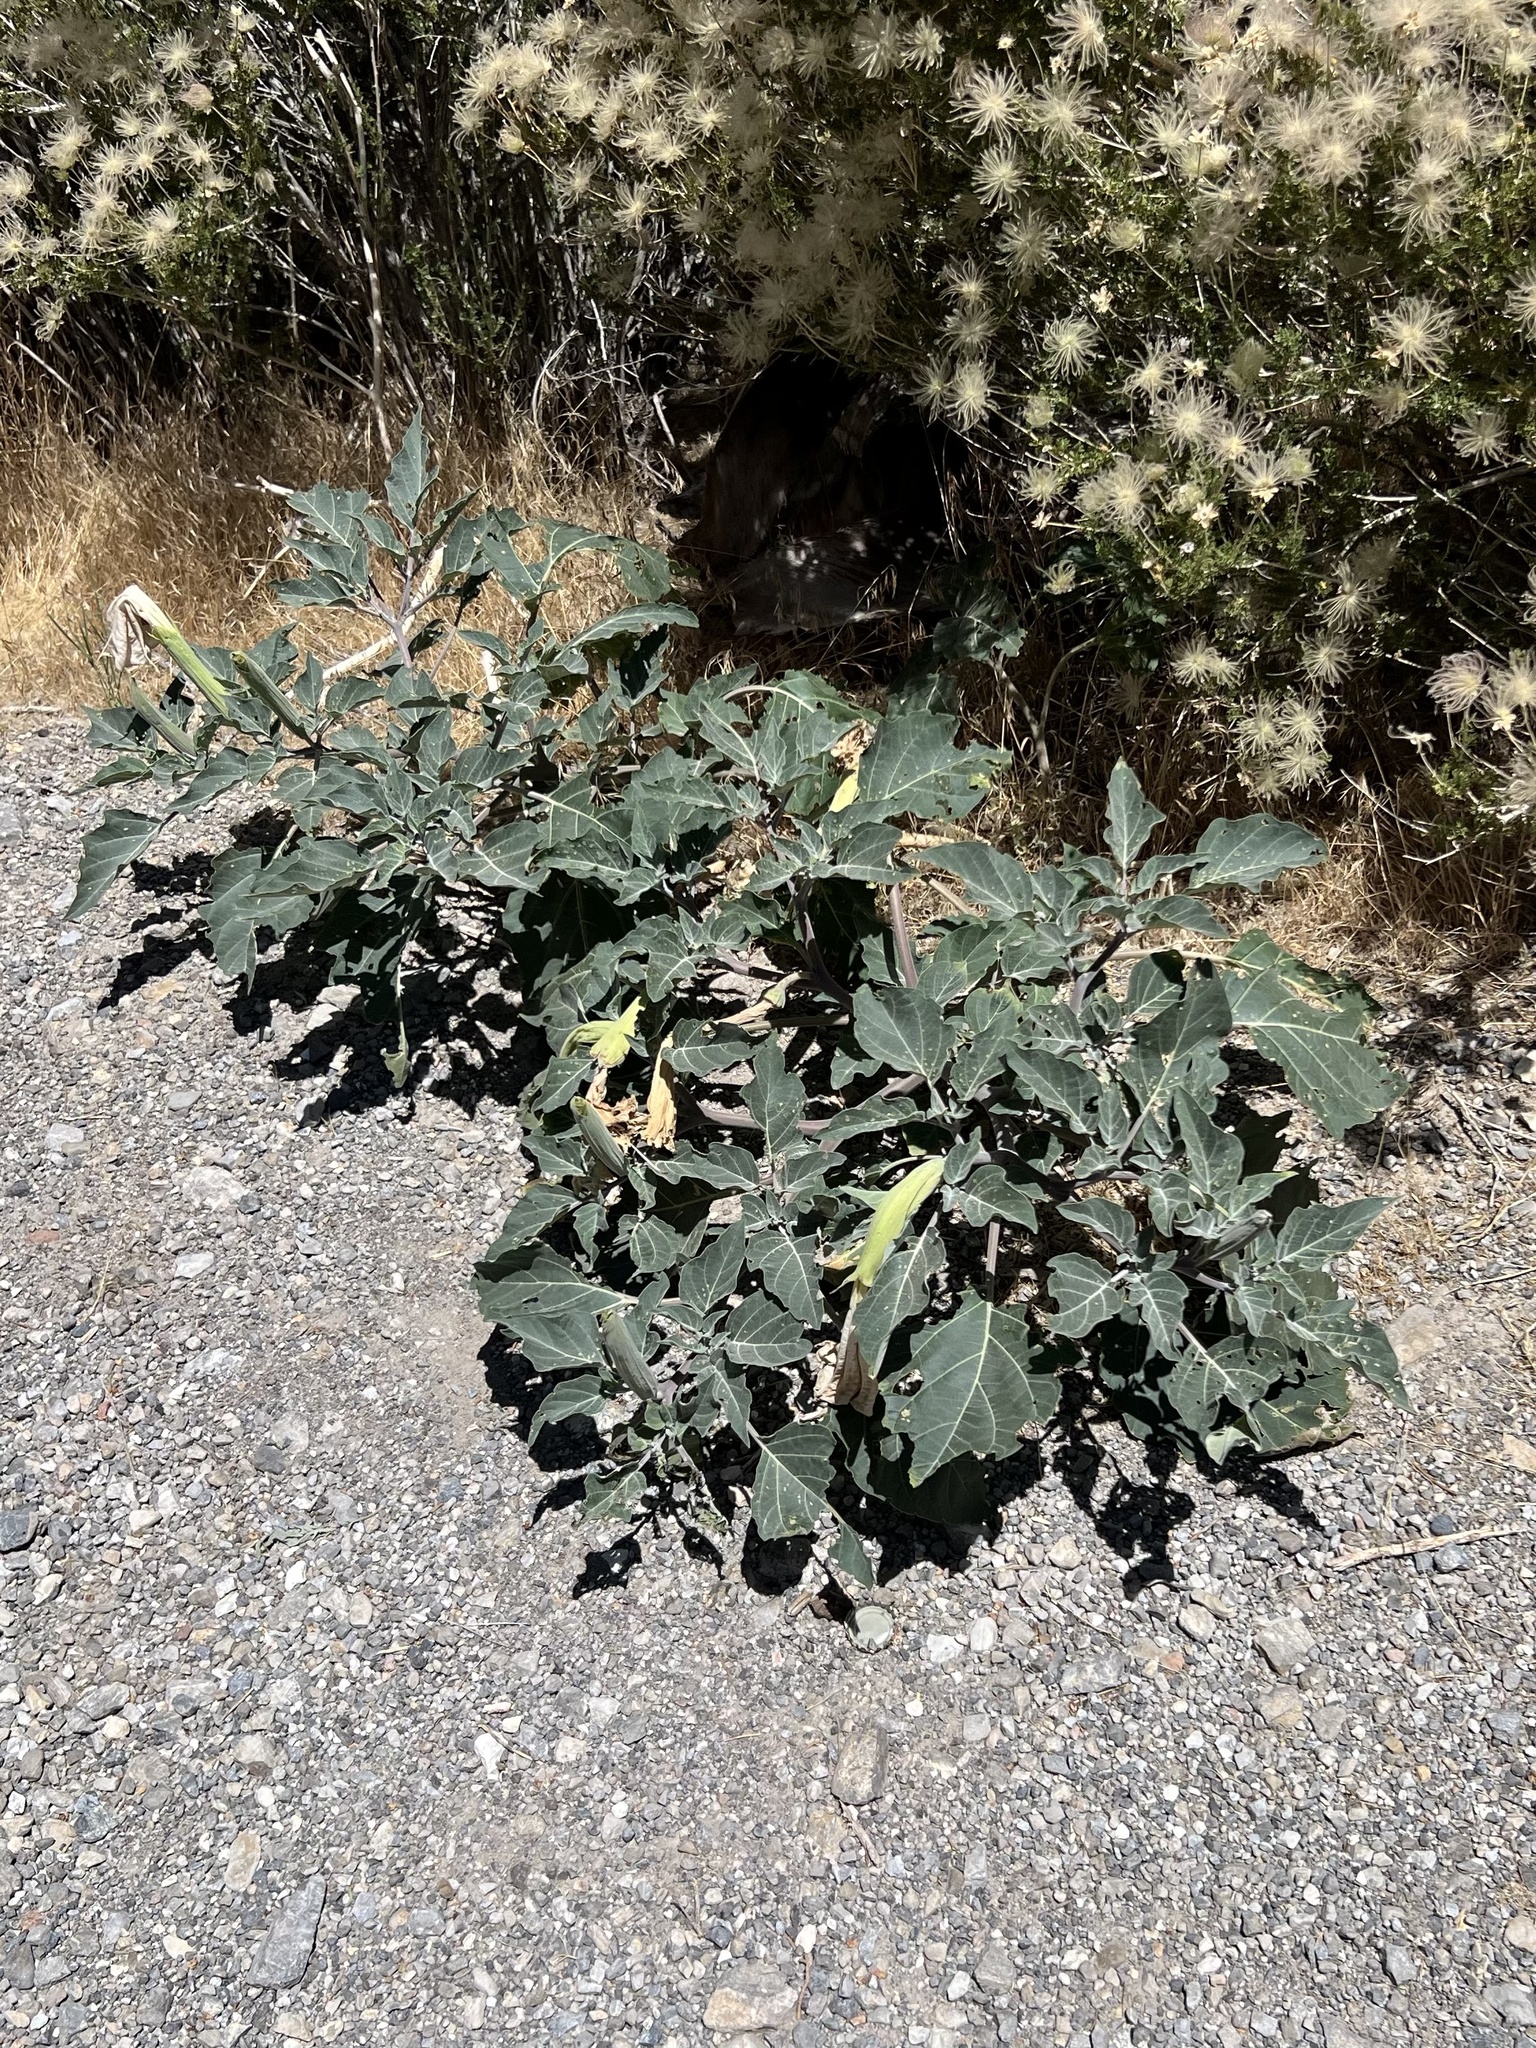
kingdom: Plantae
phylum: Tracheophyta
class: Magnoliopsida
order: Solanales
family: Solanaceae
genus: Datura
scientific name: Datura wrightii
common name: Sacred thorn-apple
